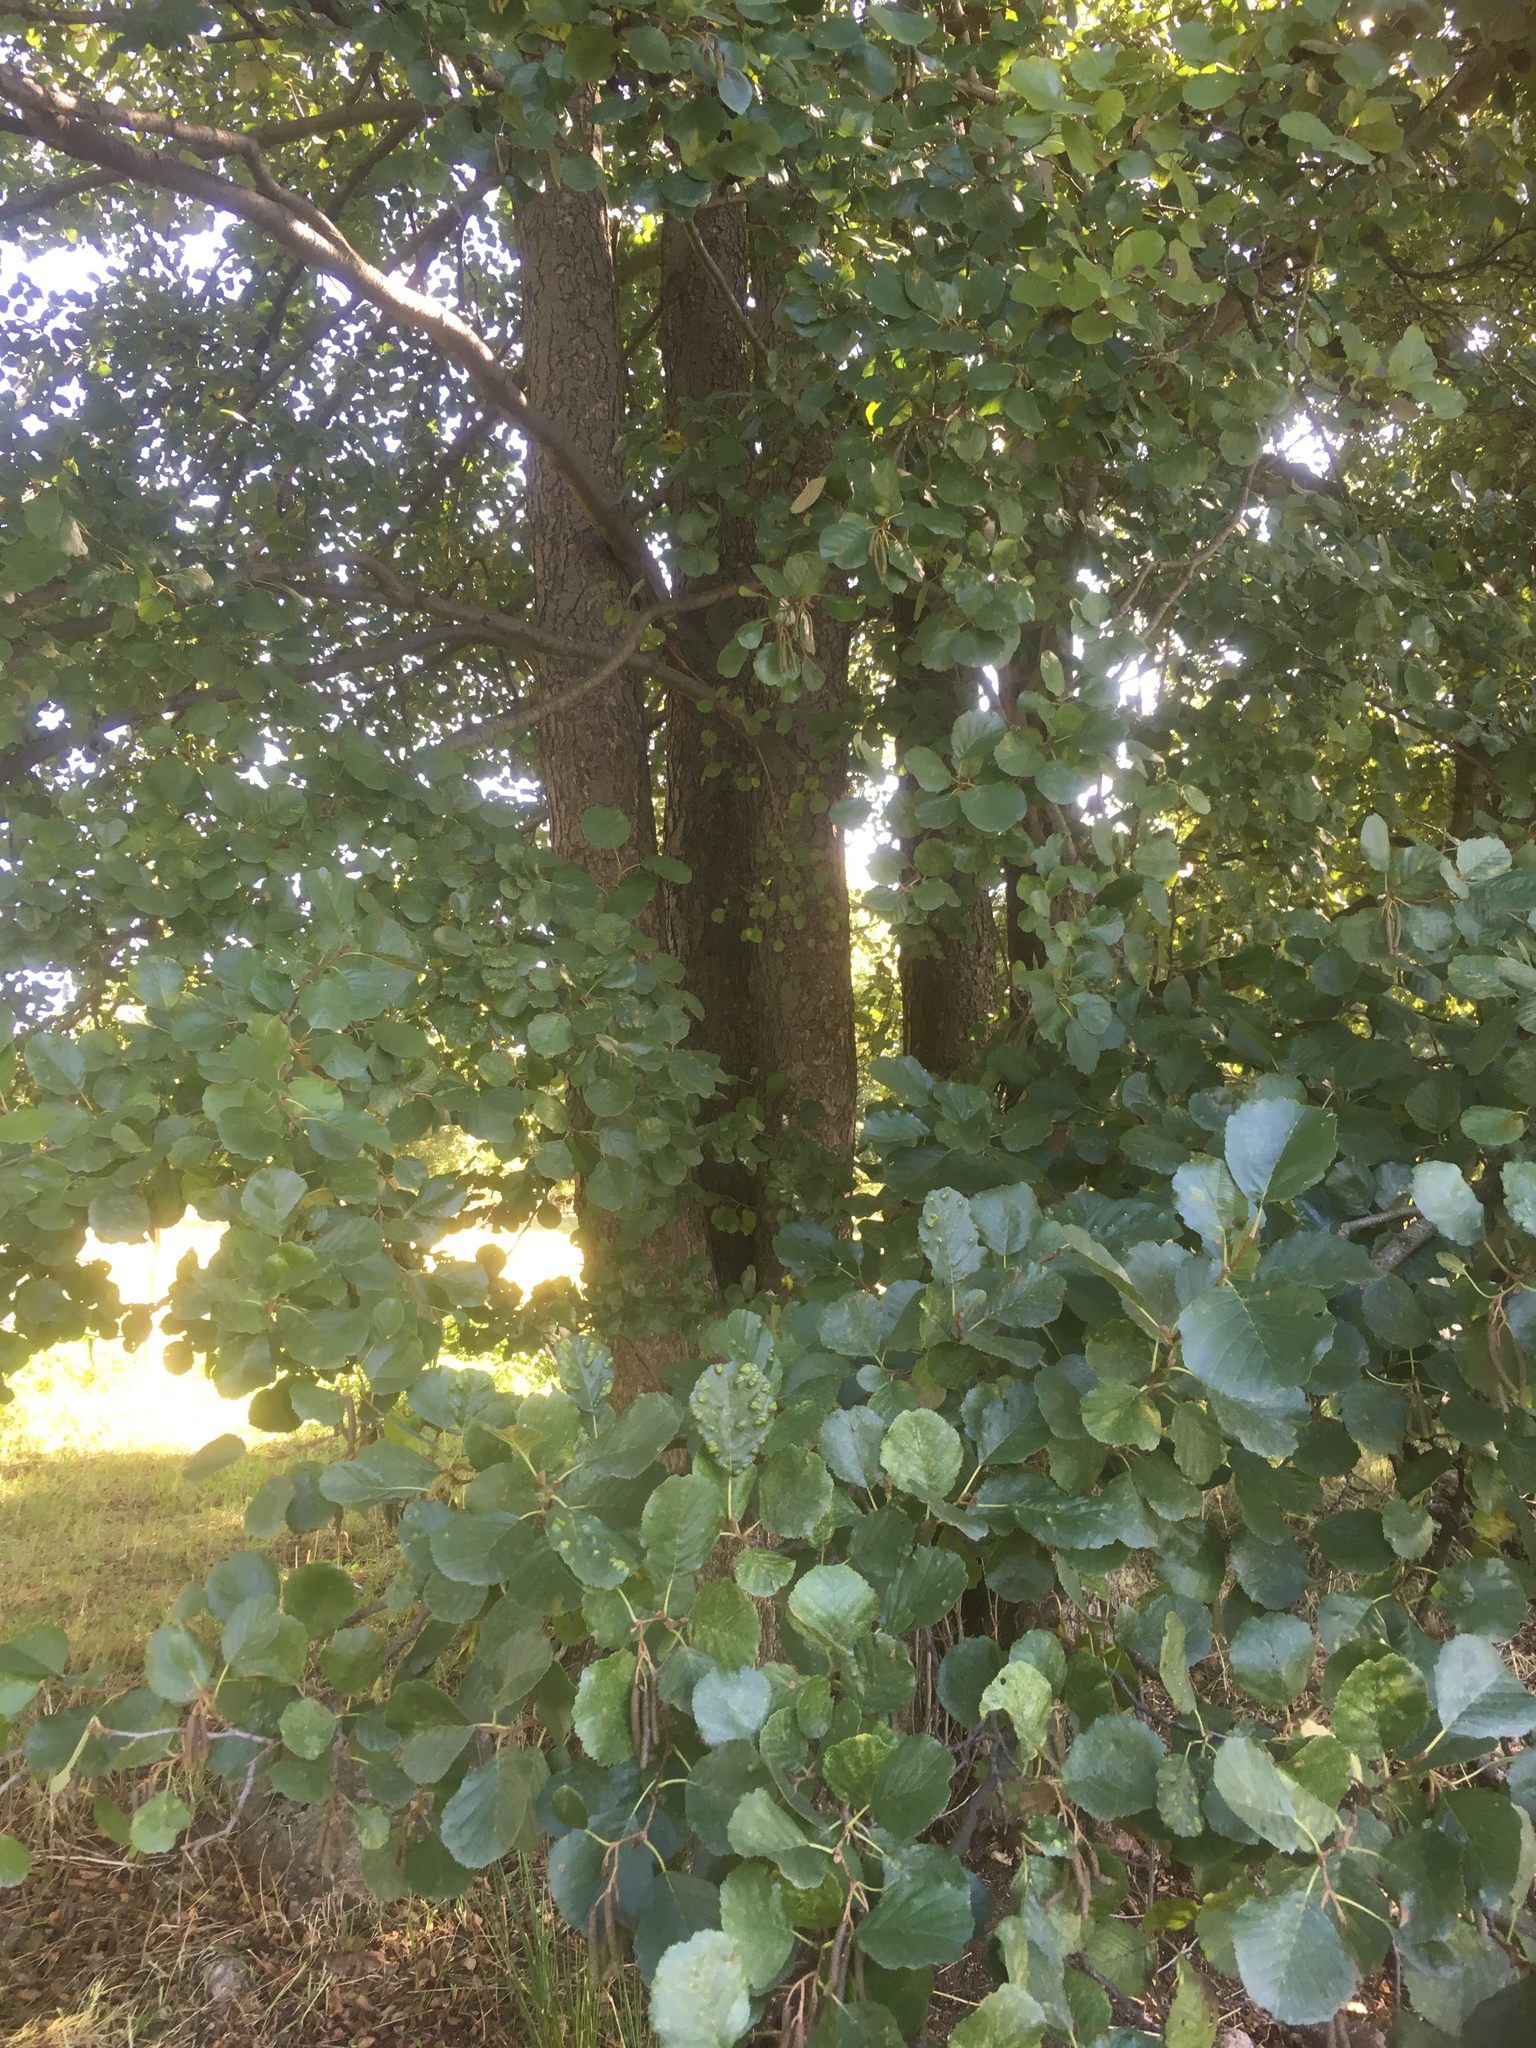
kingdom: Plantae
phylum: Tracheophyta
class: Magnoliopsida
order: Fagales
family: Betulaceae
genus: Alnus
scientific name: Alnus glutinosa
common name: Black alder
